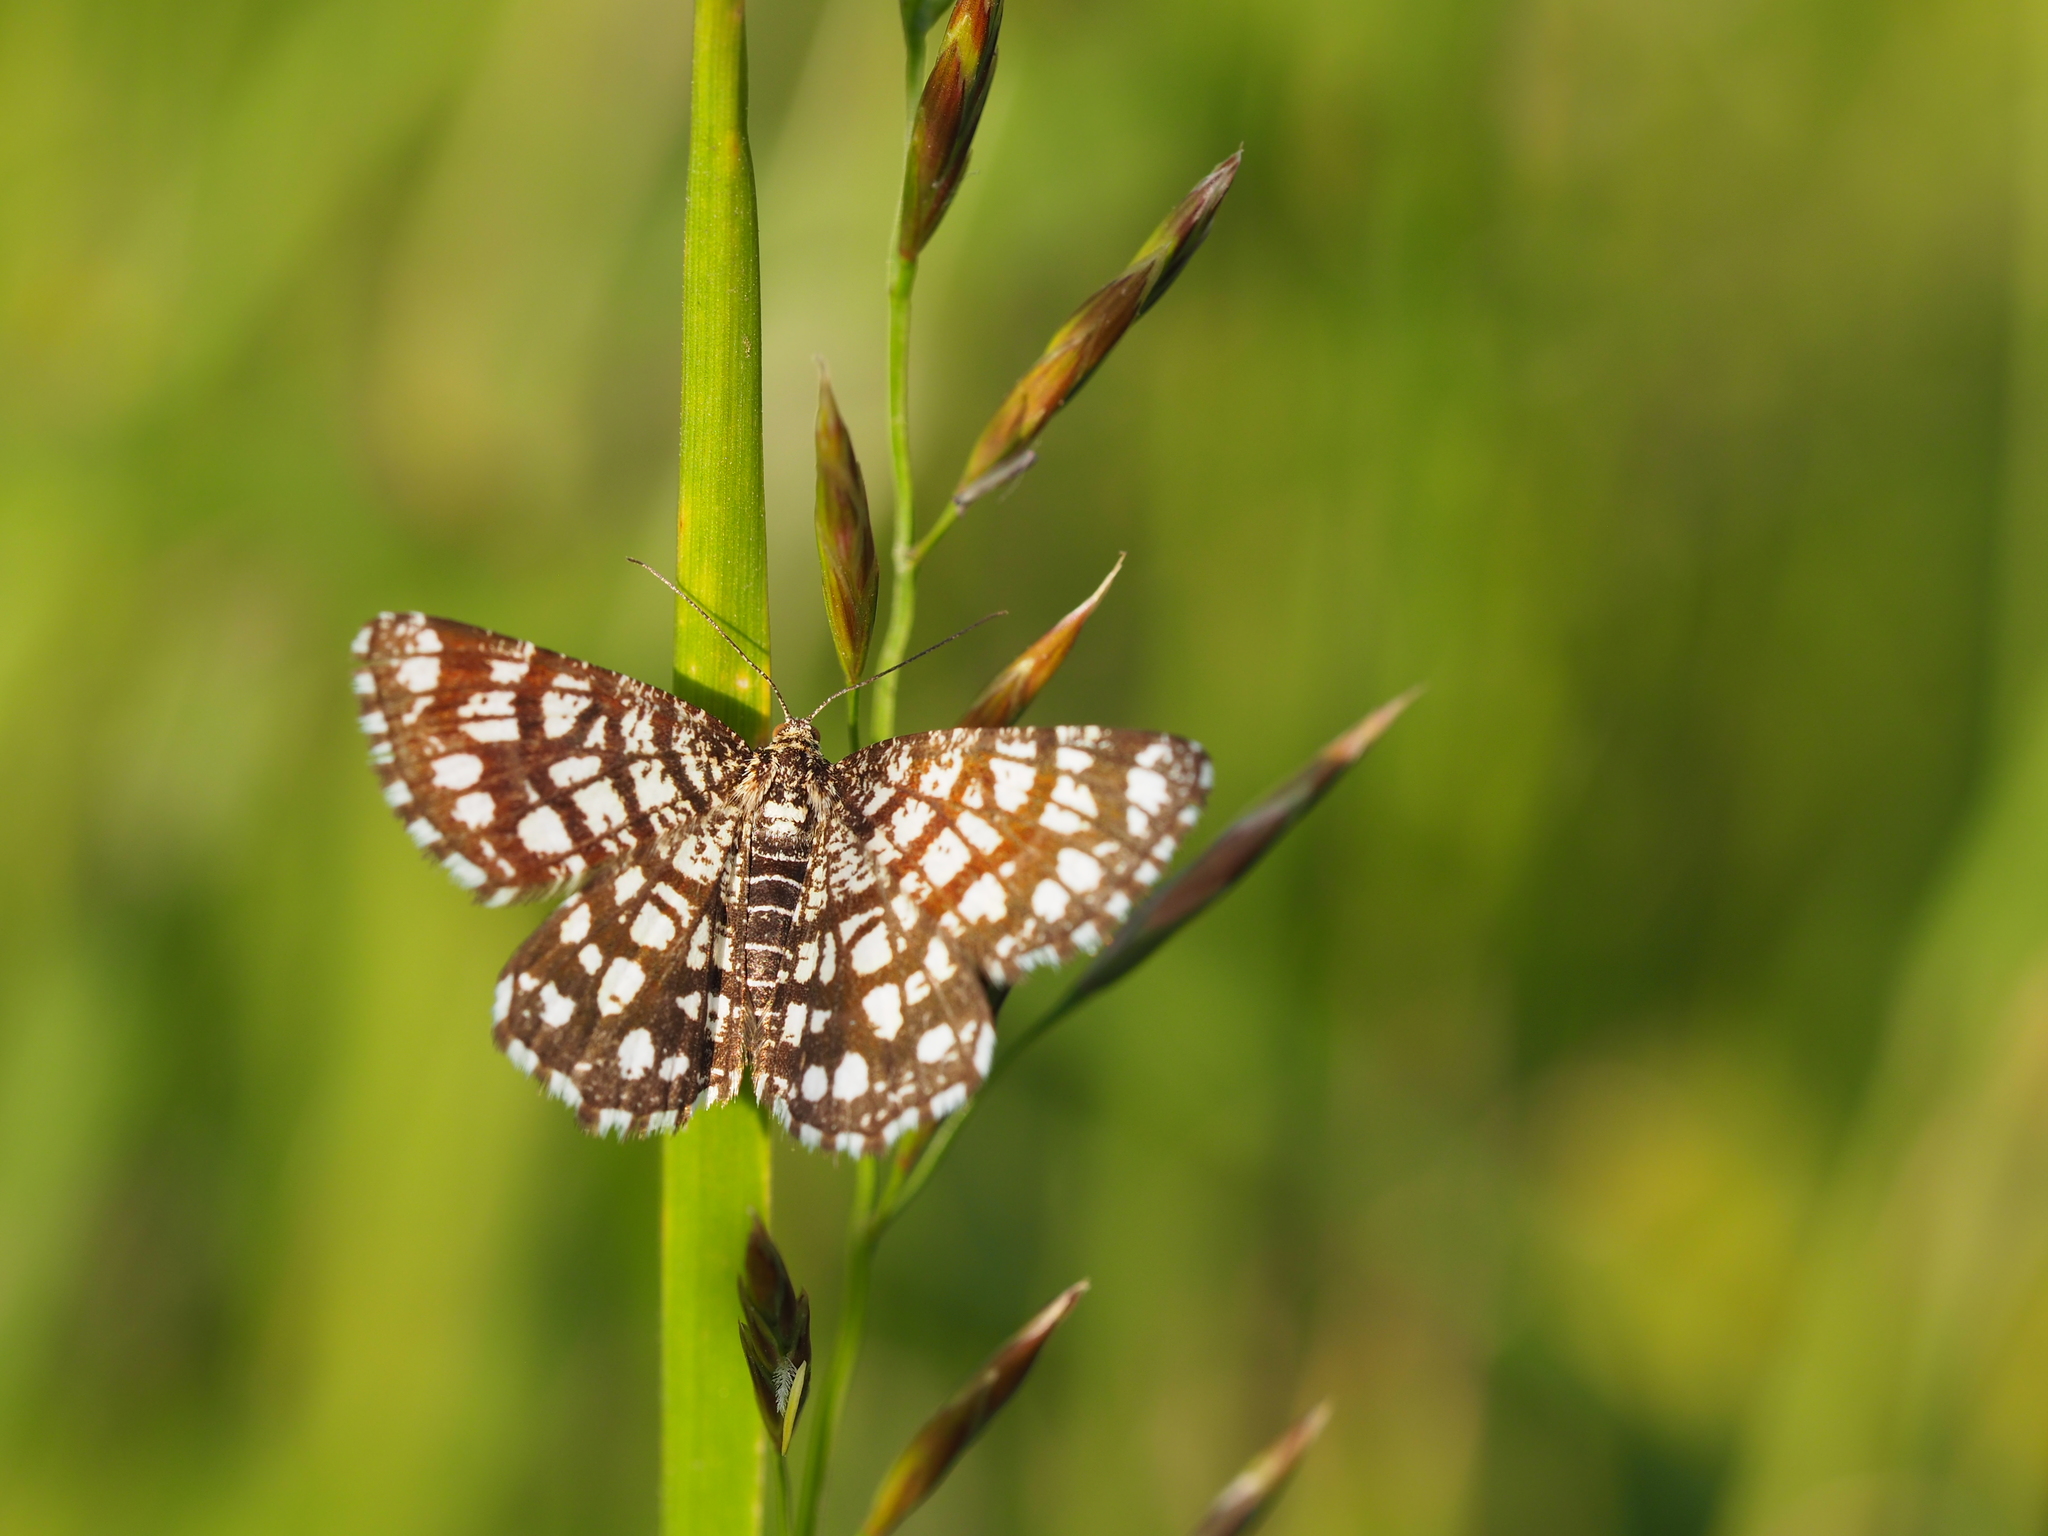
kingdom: Animalia
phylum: Arthropoda
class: Insecta
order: Lepidoptera
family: Geometridae
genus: Chiasmia
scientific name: Chiasmia clathrata
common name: Latticed heath
